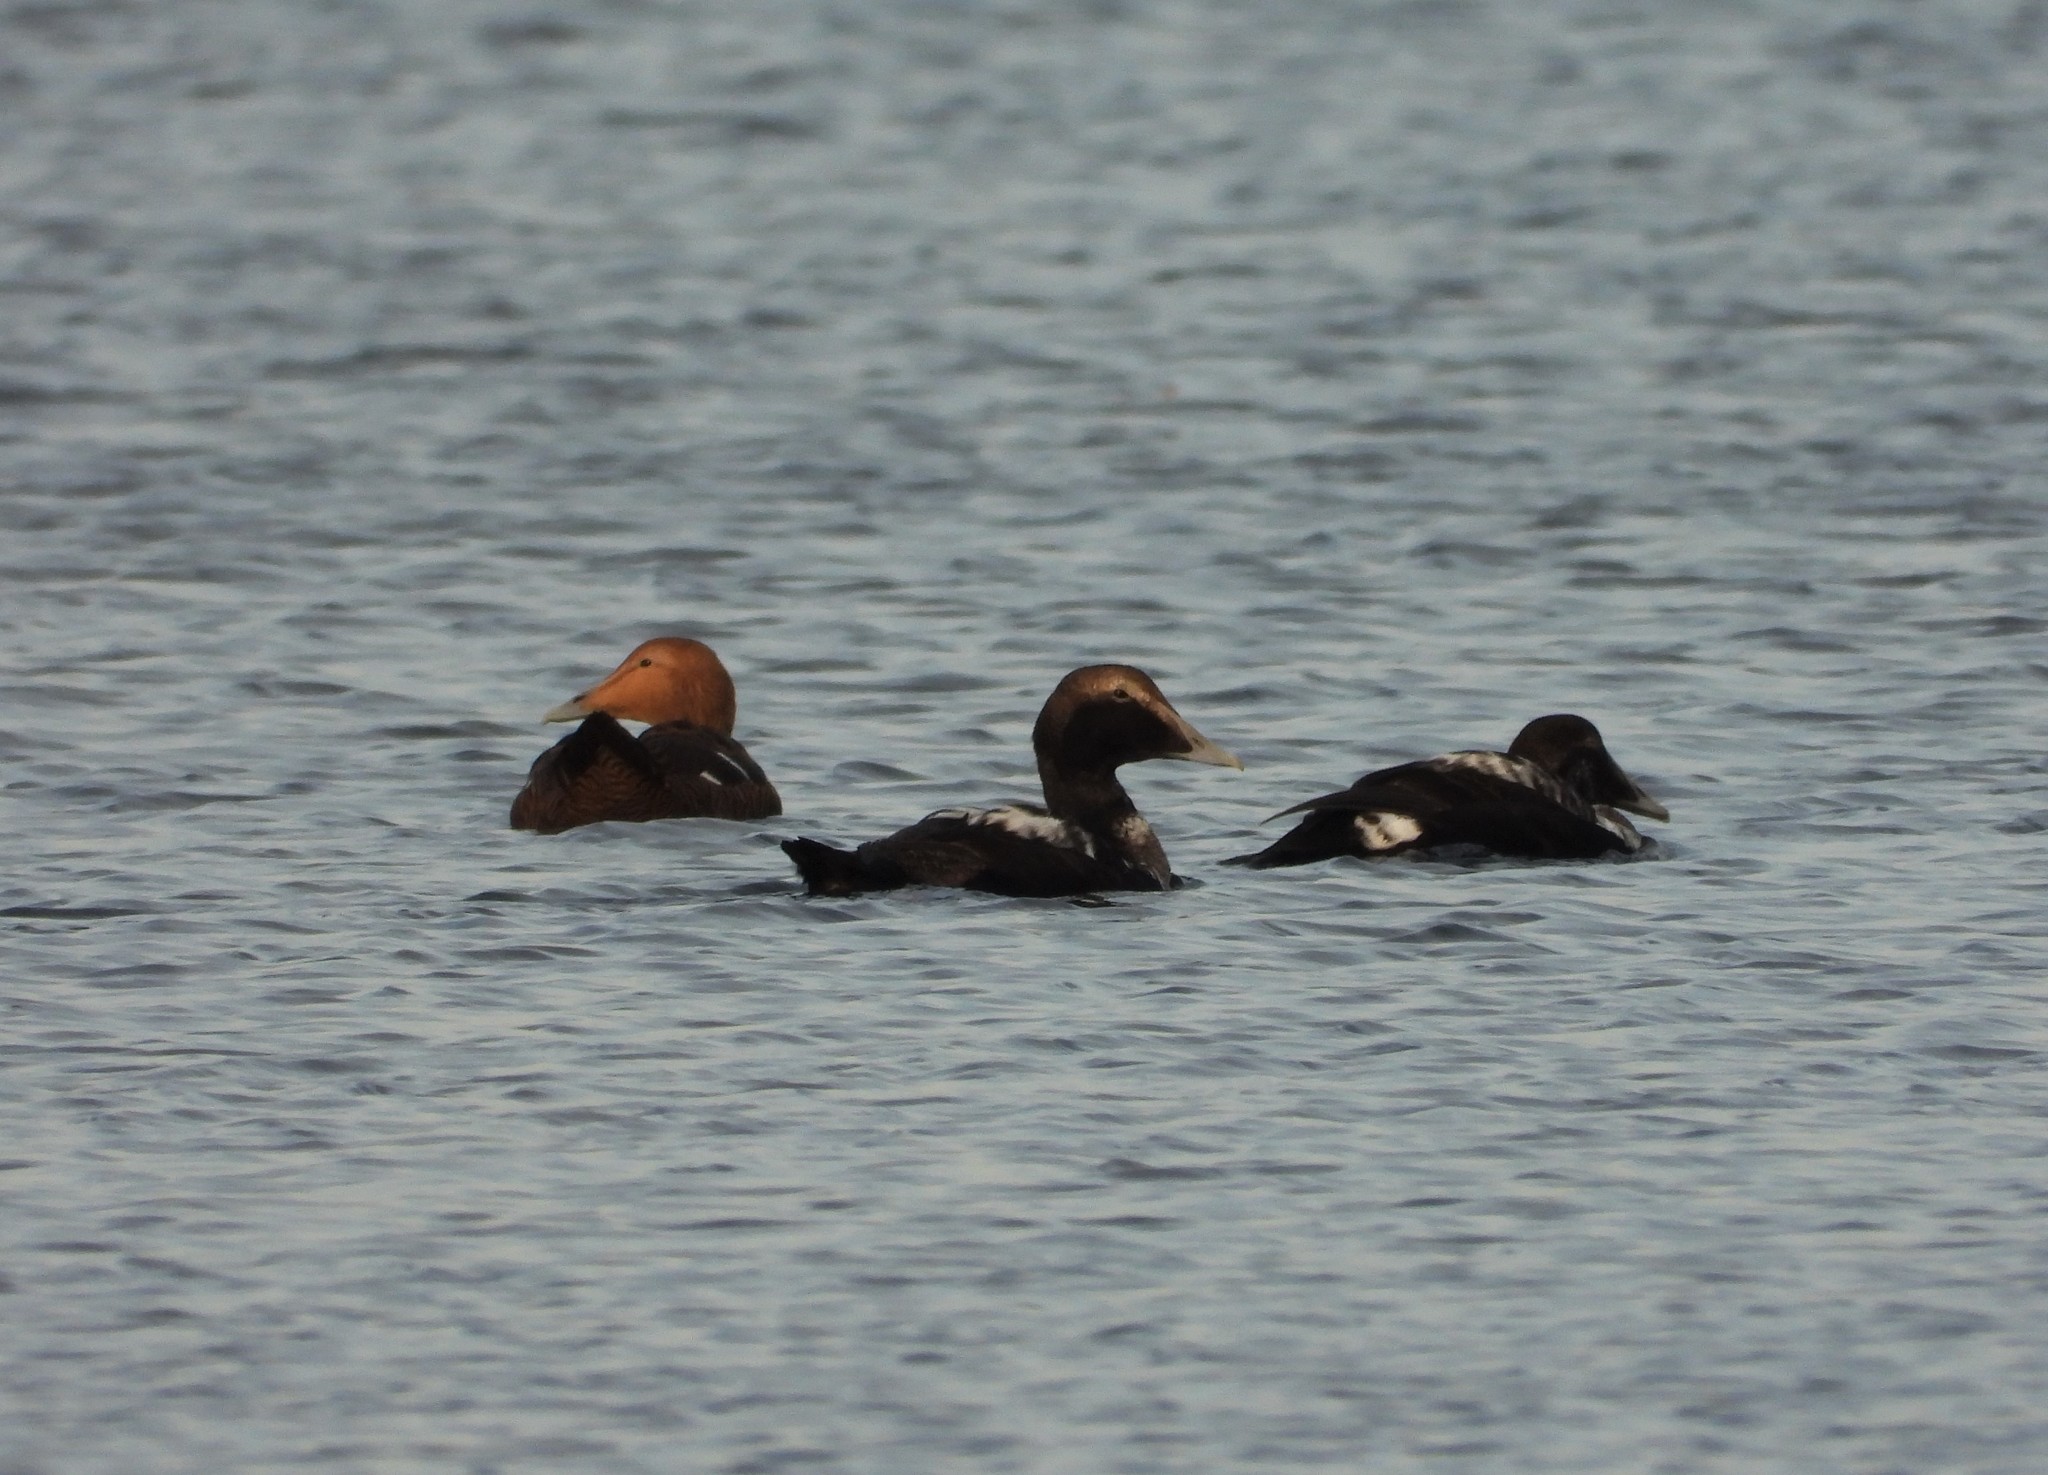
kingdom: Animalia
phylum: Chordata
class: Aves
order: Anseriformes
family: Anatidae
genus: Somateria
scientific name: Somateria mollissima
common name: Common eider
